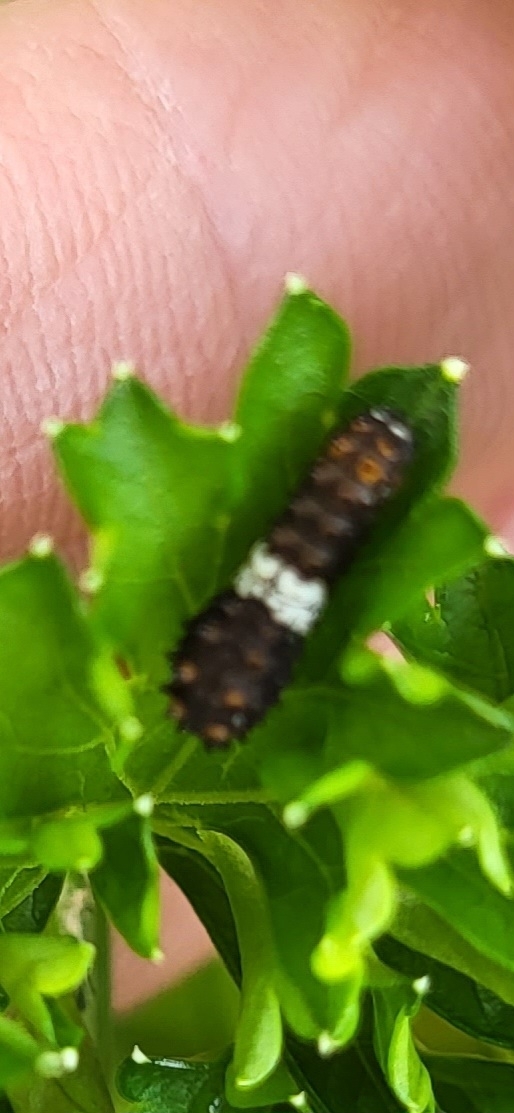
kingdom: Animalia
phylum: Arthropoda
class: Insecta
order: Lepidoptera
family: Papilionidae
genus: Papilio
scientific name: Papilio polyxenes
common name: Black swallowtail
